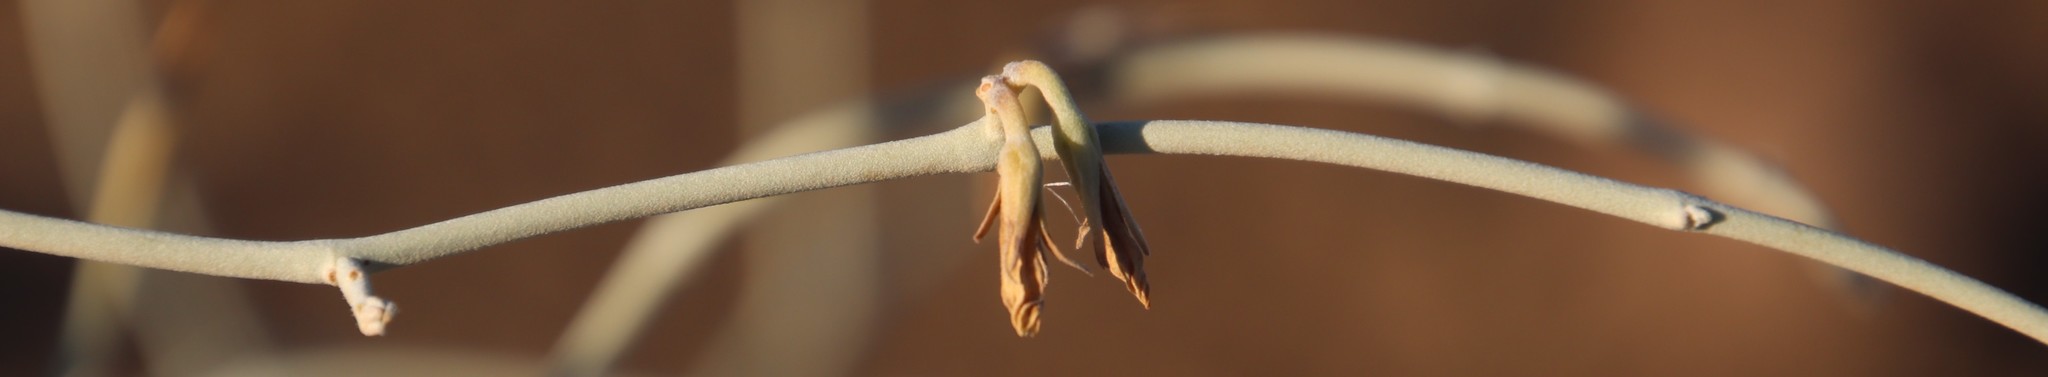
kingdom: Plantae
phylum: Tracheophyta
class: Magnoliopsida
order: Gentianales
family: Apocynaceae
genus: Microloma
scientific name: Microloma incanum
